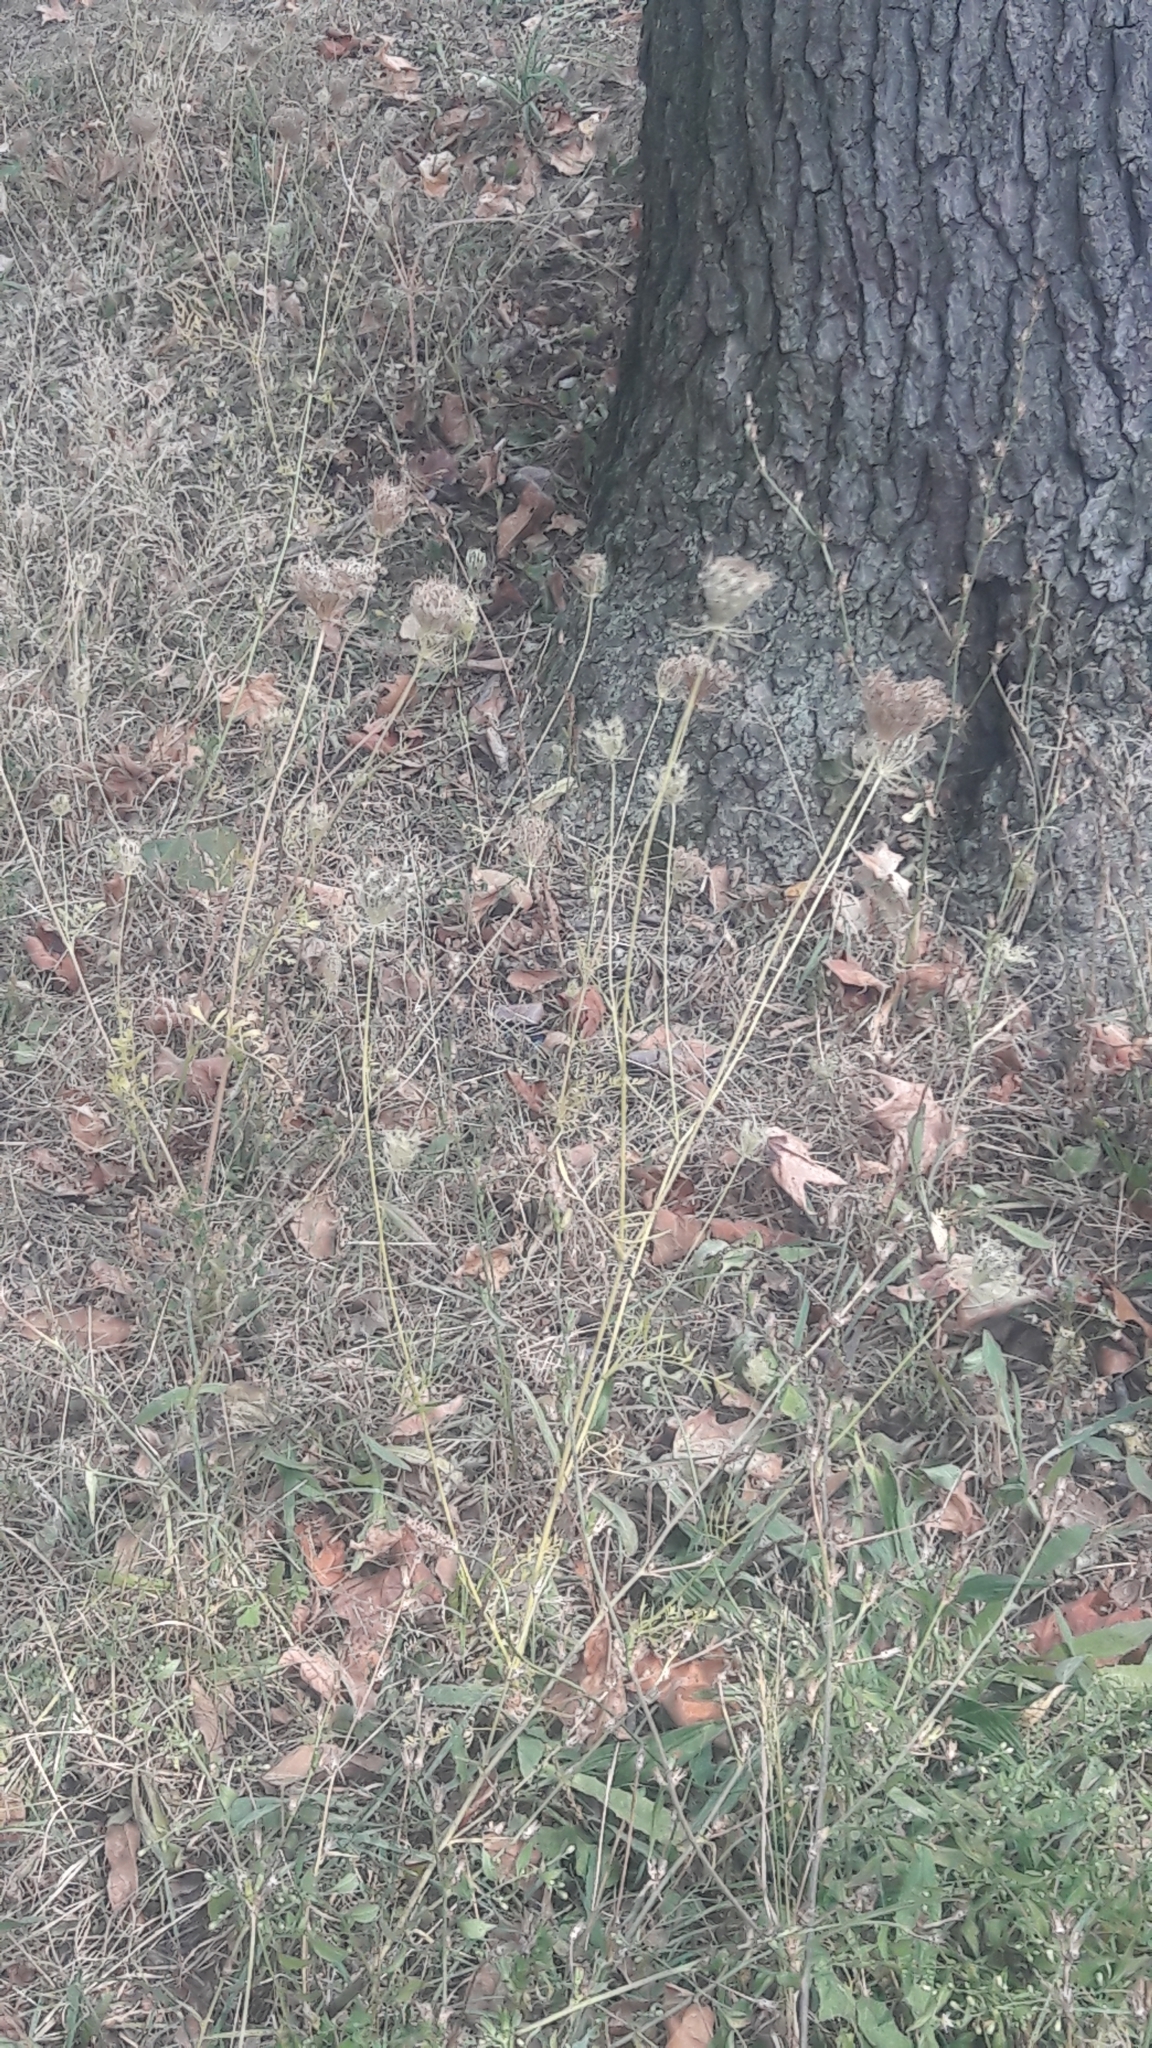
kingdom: Plantae
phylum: Tracheophyta
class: Magnoliopsida
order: Apiales
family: Apiaceae
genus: Daucus
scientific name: Daucus carota
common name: Wild carrot
